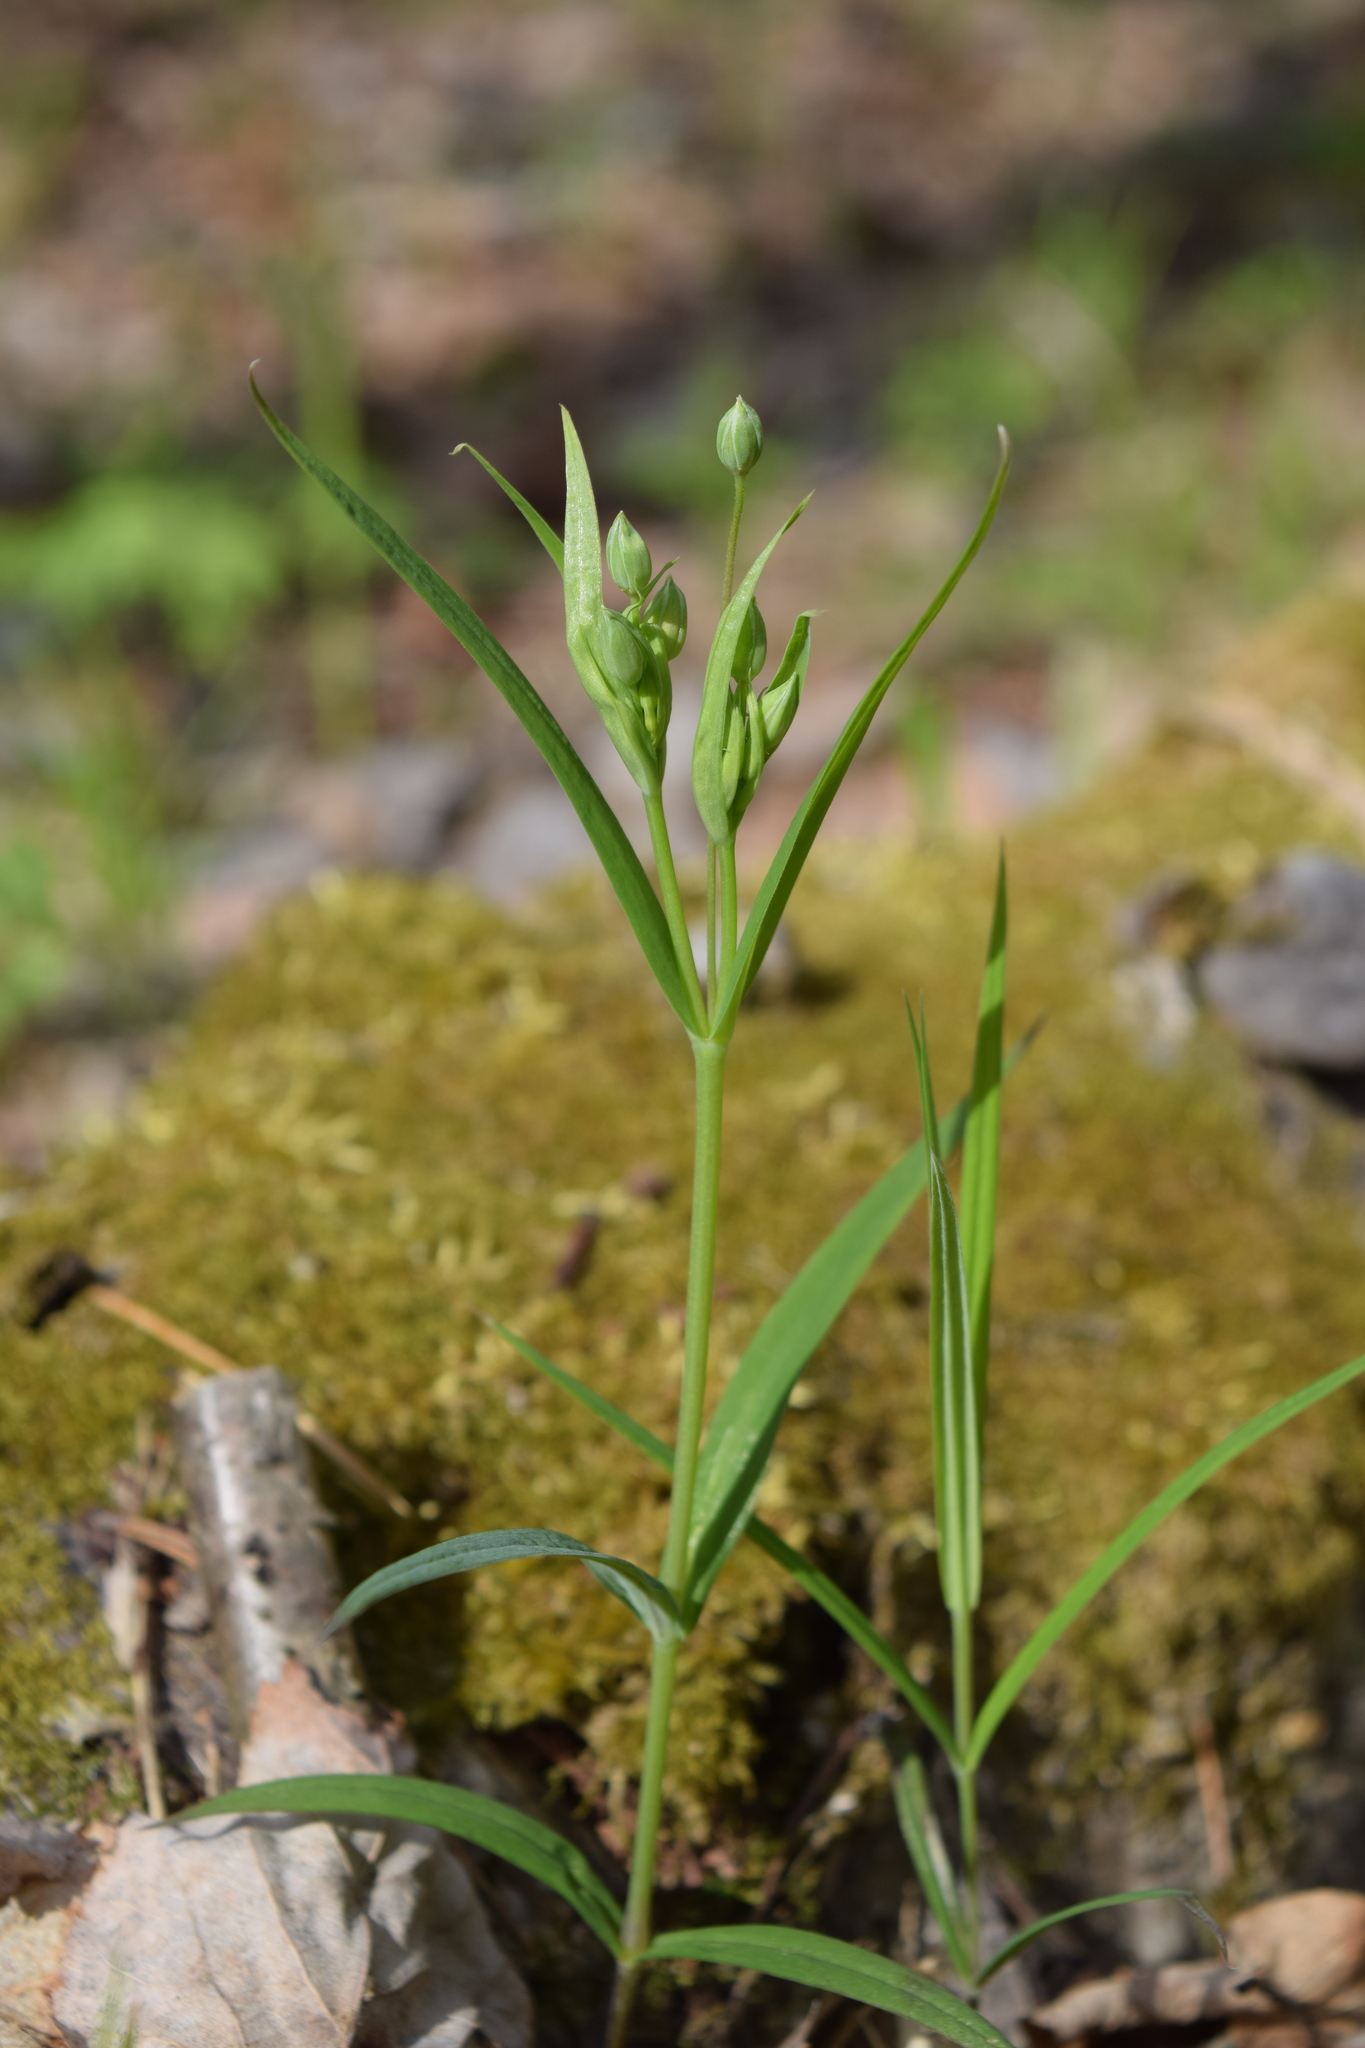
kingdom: Plantae
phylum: Tracheophyta
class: Magnoliopsida
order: Caryophyllales
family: Caryophyllaceae
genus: Rabelera
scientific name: Rabelera holostea
